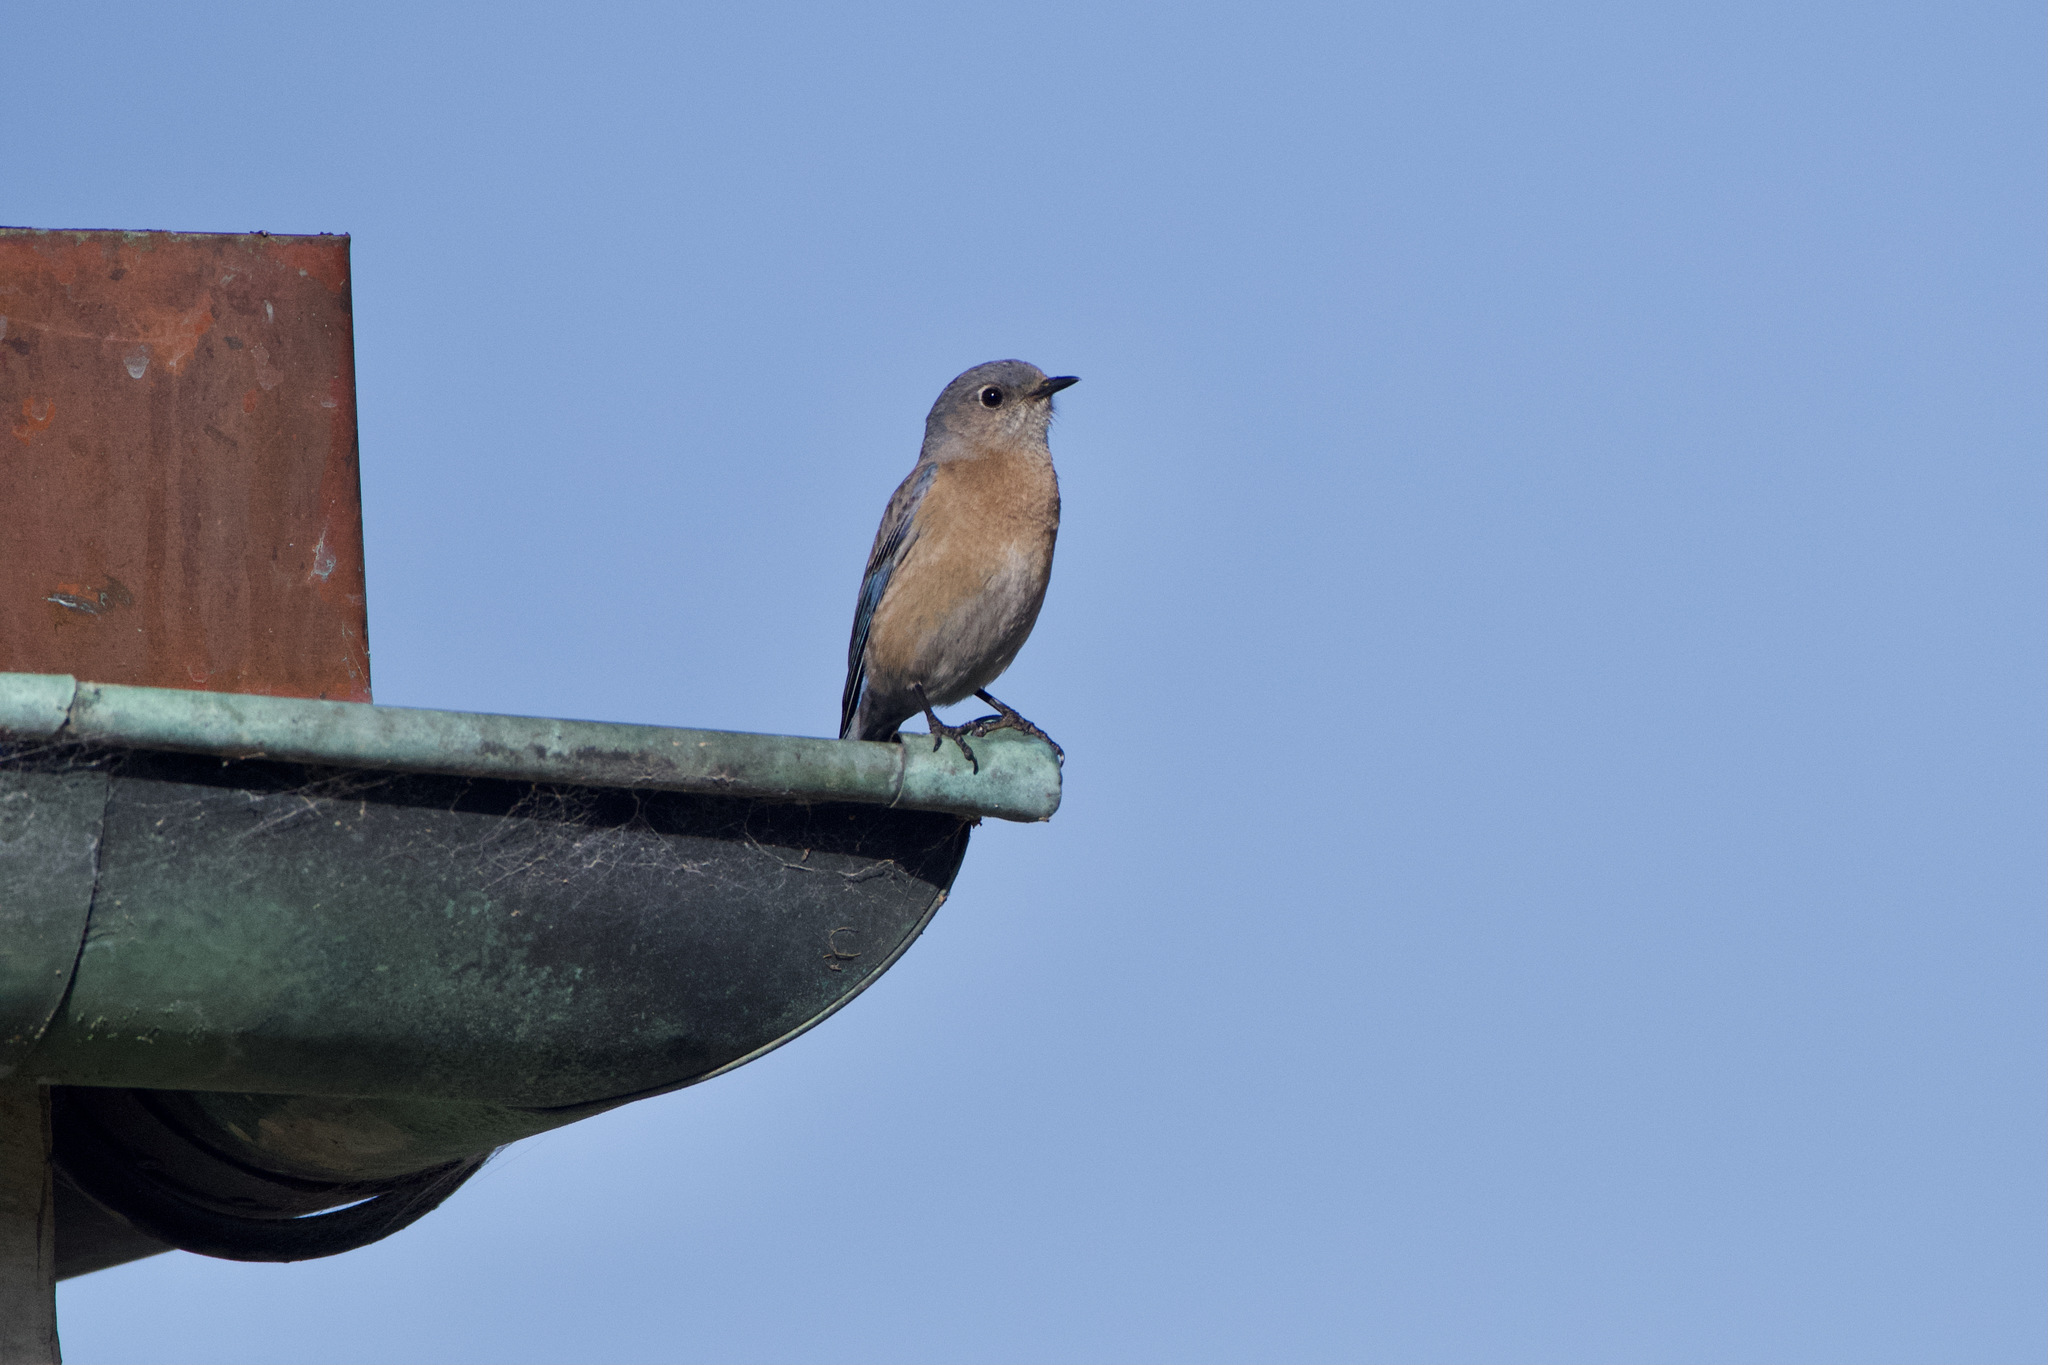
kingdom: Animalia
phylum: Chordata
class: Aves
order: Passeriformes
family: Turdidae
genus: Sialia
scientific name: Sialia mexicana
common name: Western bluebird
